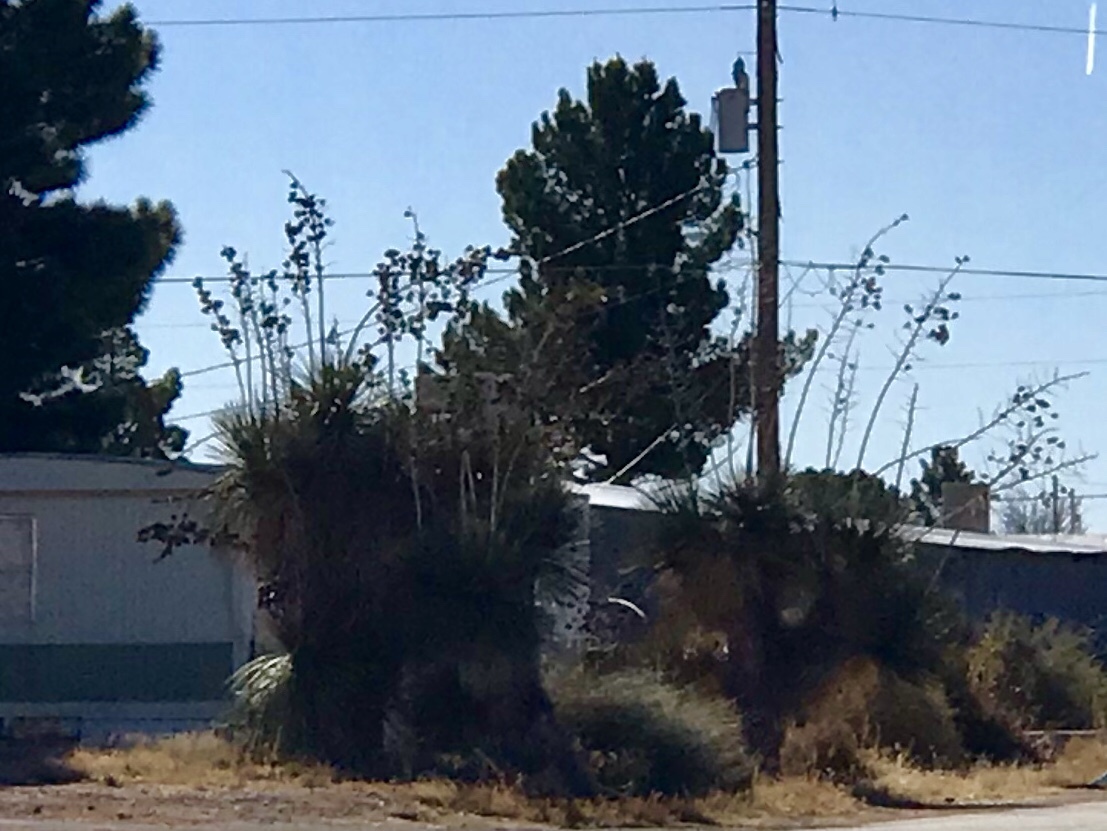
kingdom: Plantae
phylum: Tracheophyta
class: Liliopsida
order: Asparagales
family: Asparagaceae
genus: Yucca
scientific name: Yucca elata
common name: Palmella
